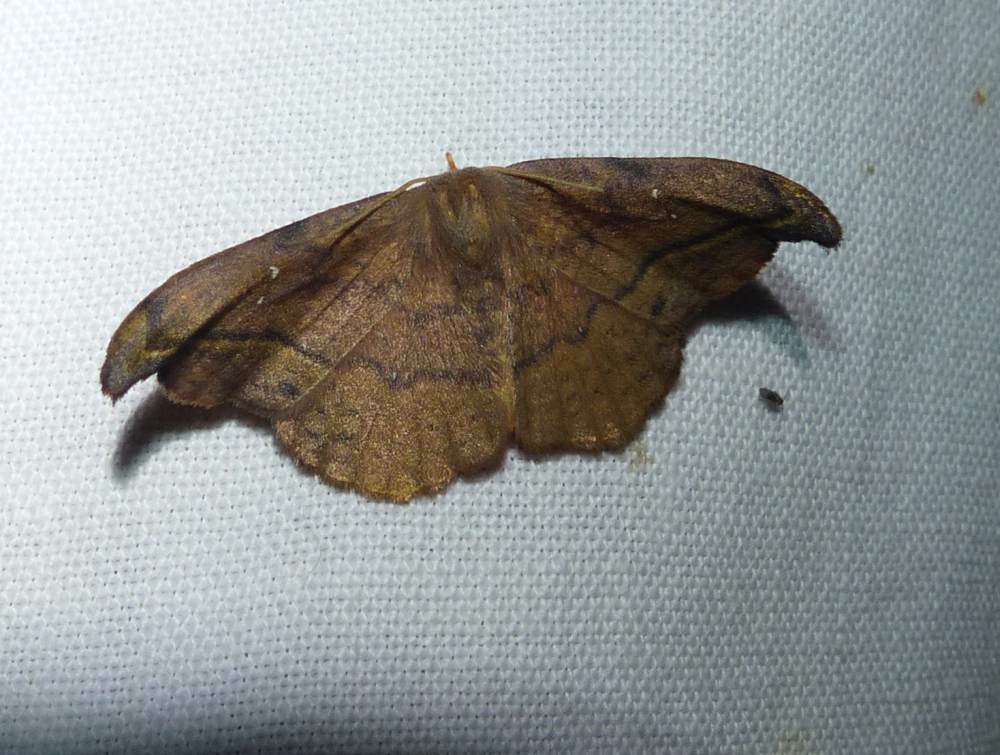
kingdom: Animalia
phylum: Arthropoda
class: Insecta
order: Lepidoptera
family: Drepanidae
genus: Oreta
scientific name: Oreta rosea
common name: Rose hooktip
